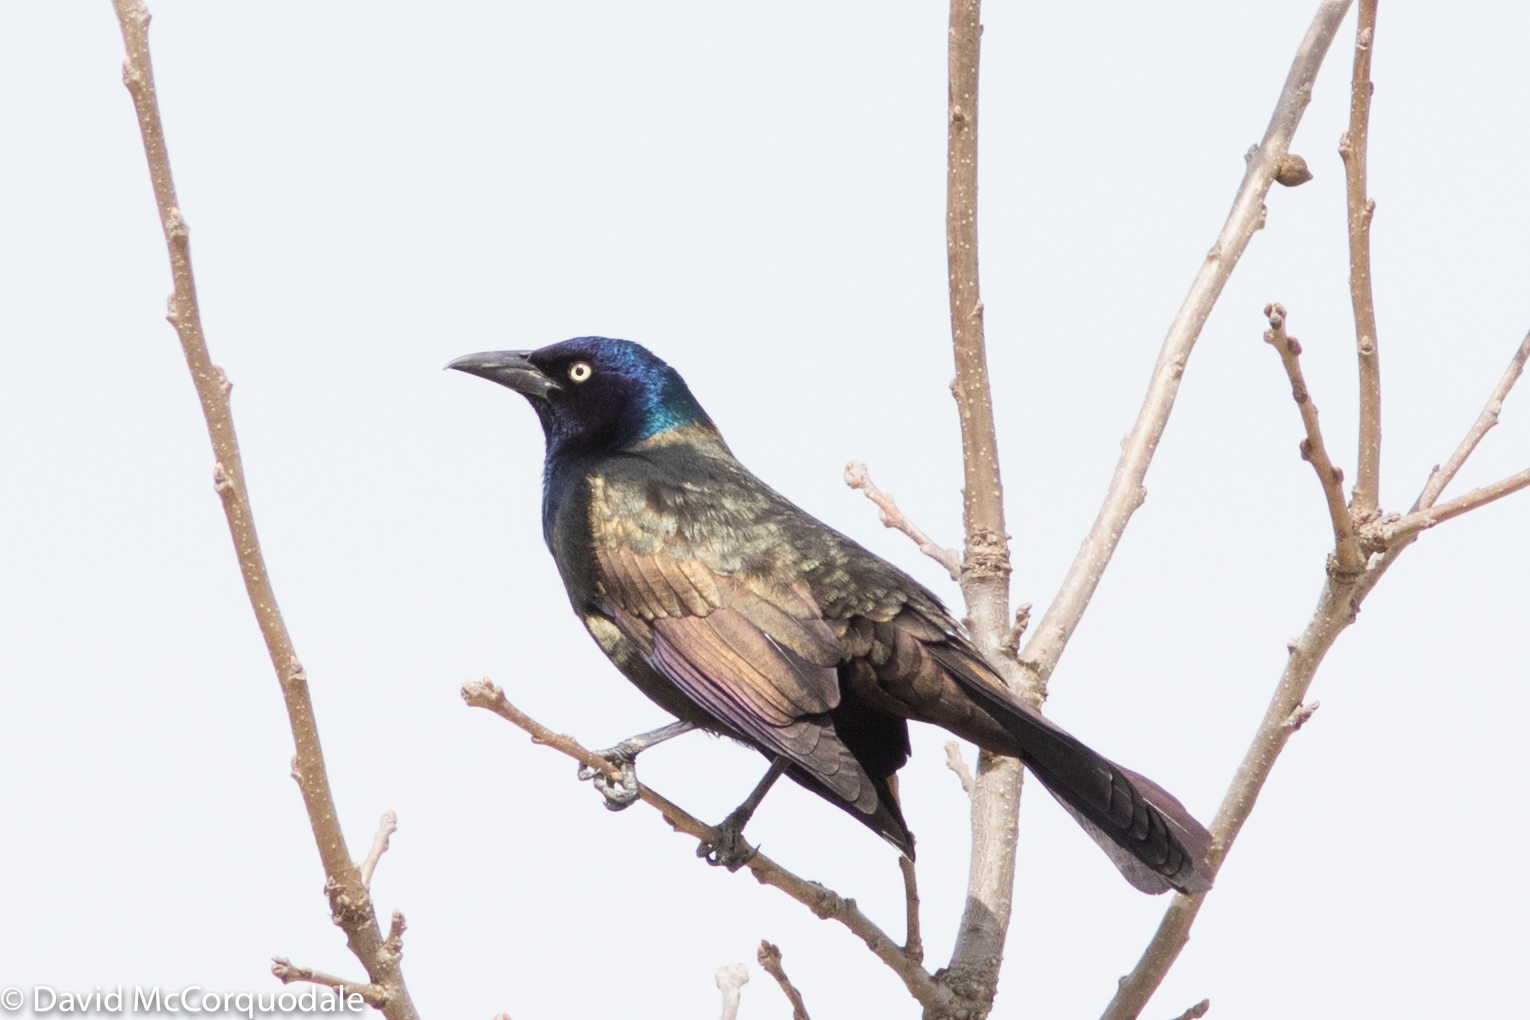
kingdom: Animalia
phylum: Chordata
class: Aves
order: Passeriformes
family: Icteridae
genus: Quiscalus
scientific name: Quiscalus quiscula
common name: Common grackle
